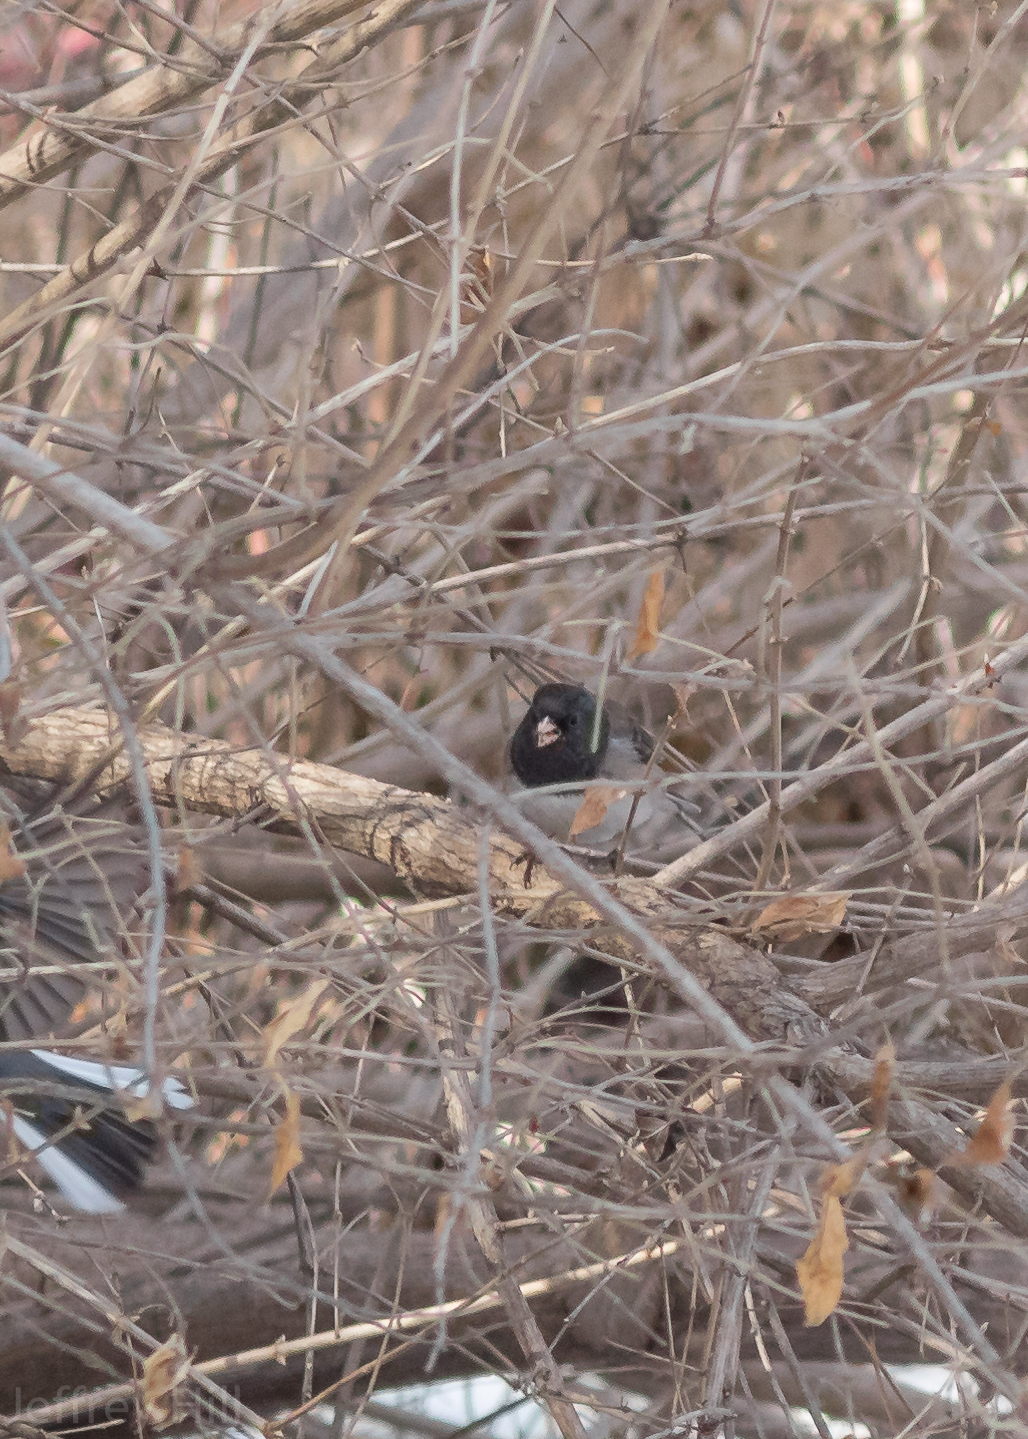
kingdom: Animalia
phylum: Chordata
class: Aves
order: Passeriformes
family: Passerellidae
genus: Junco
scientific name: Junco hyemalis
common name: Dark-eyed junco
